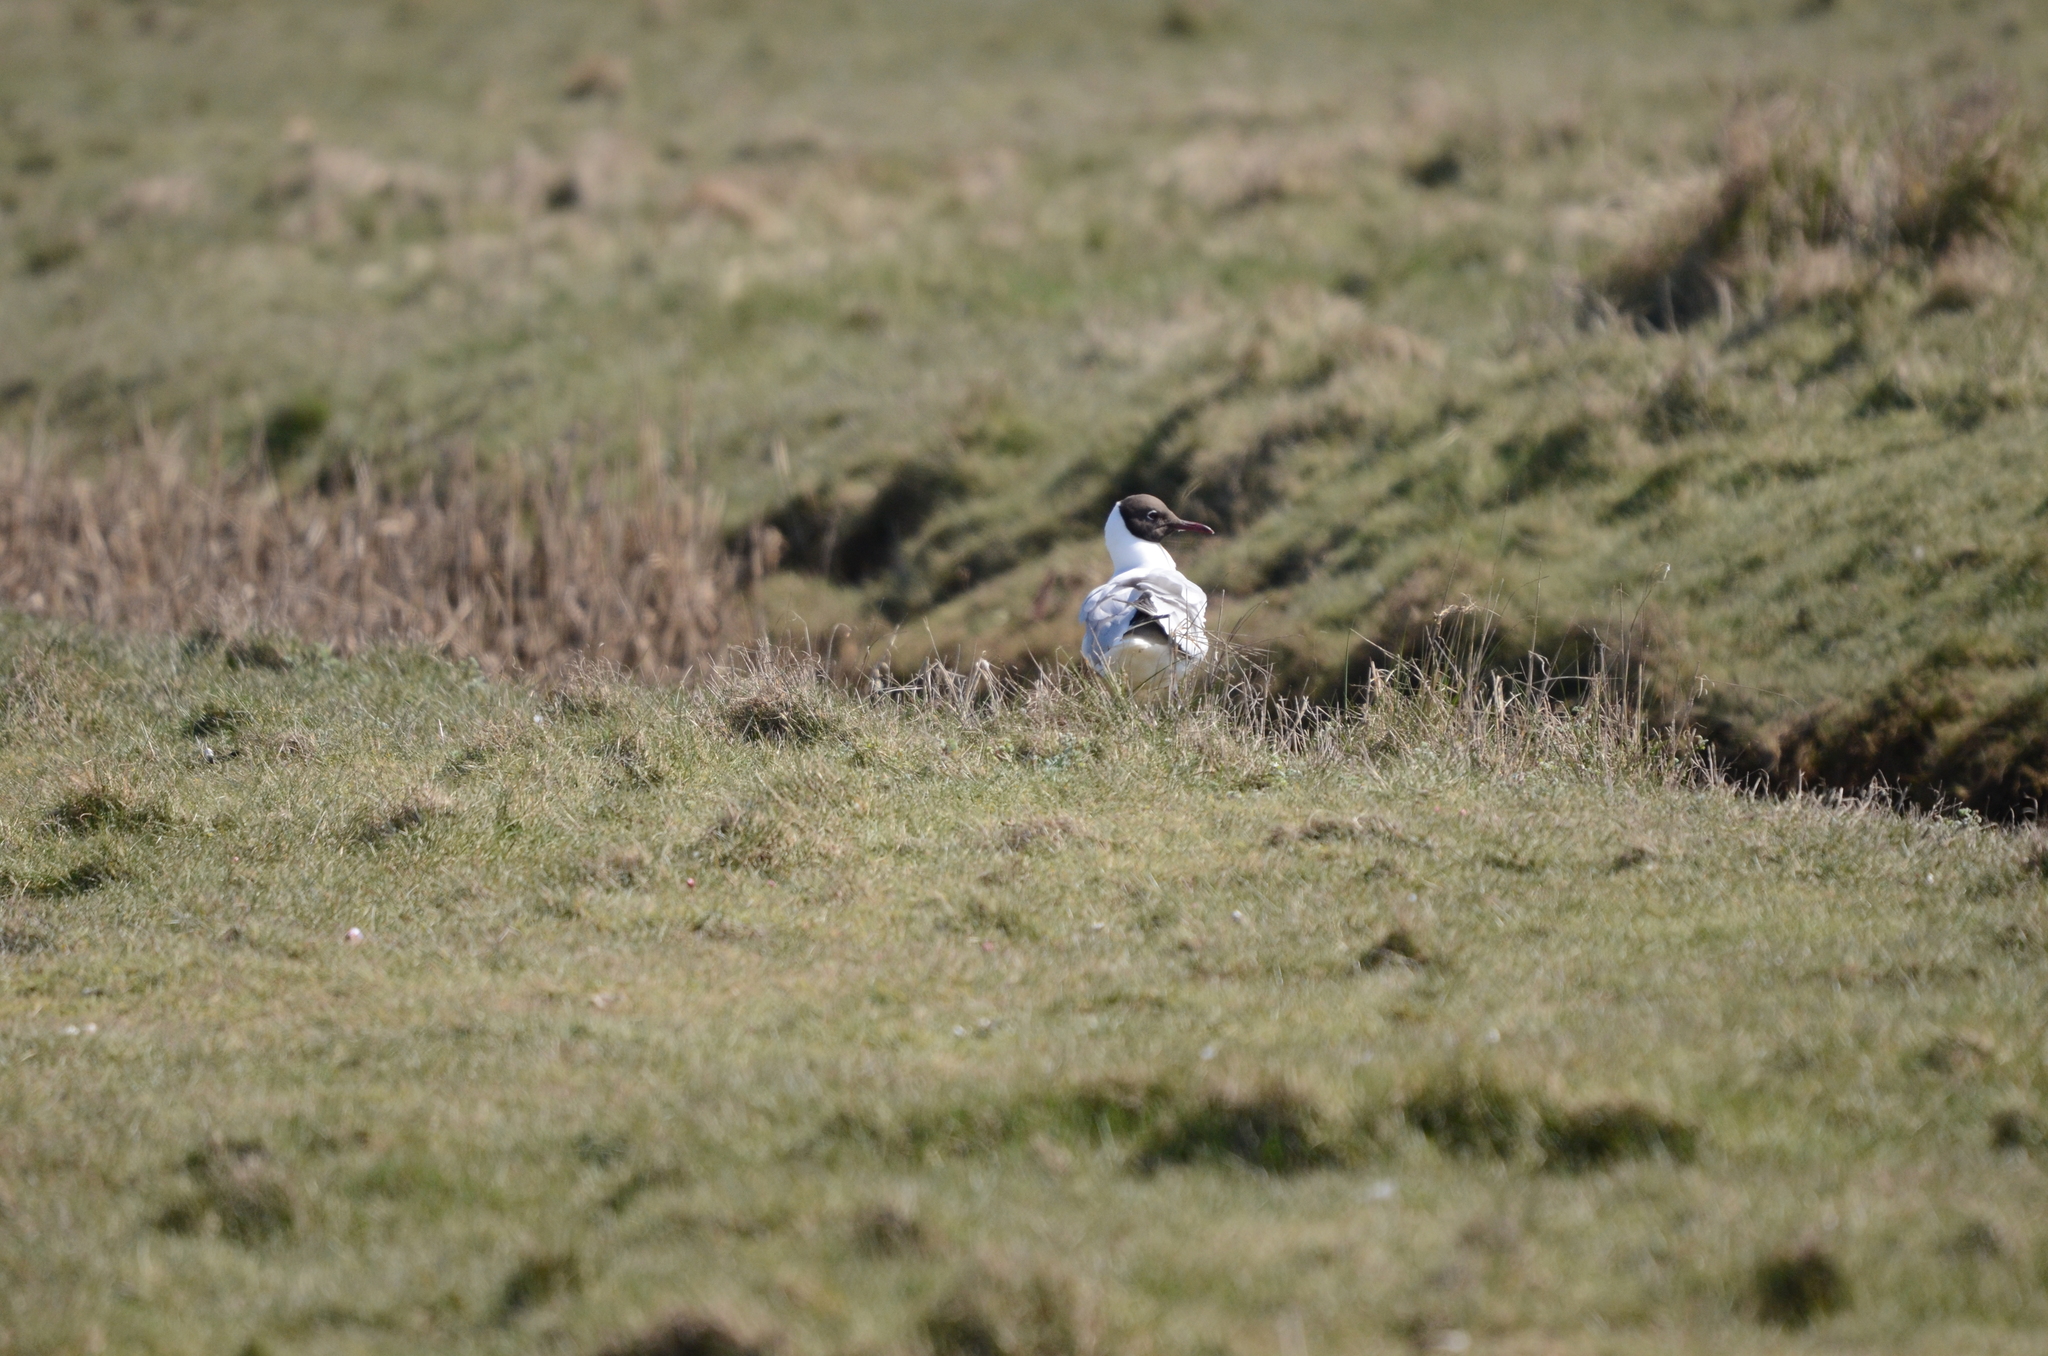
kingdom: Animalia
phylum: Chordata
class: Aves
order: Charadriiformes
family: Laridae
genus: Chroicocephalus
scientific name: Chroicocephalus ridibundus
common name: Black-headed gull
